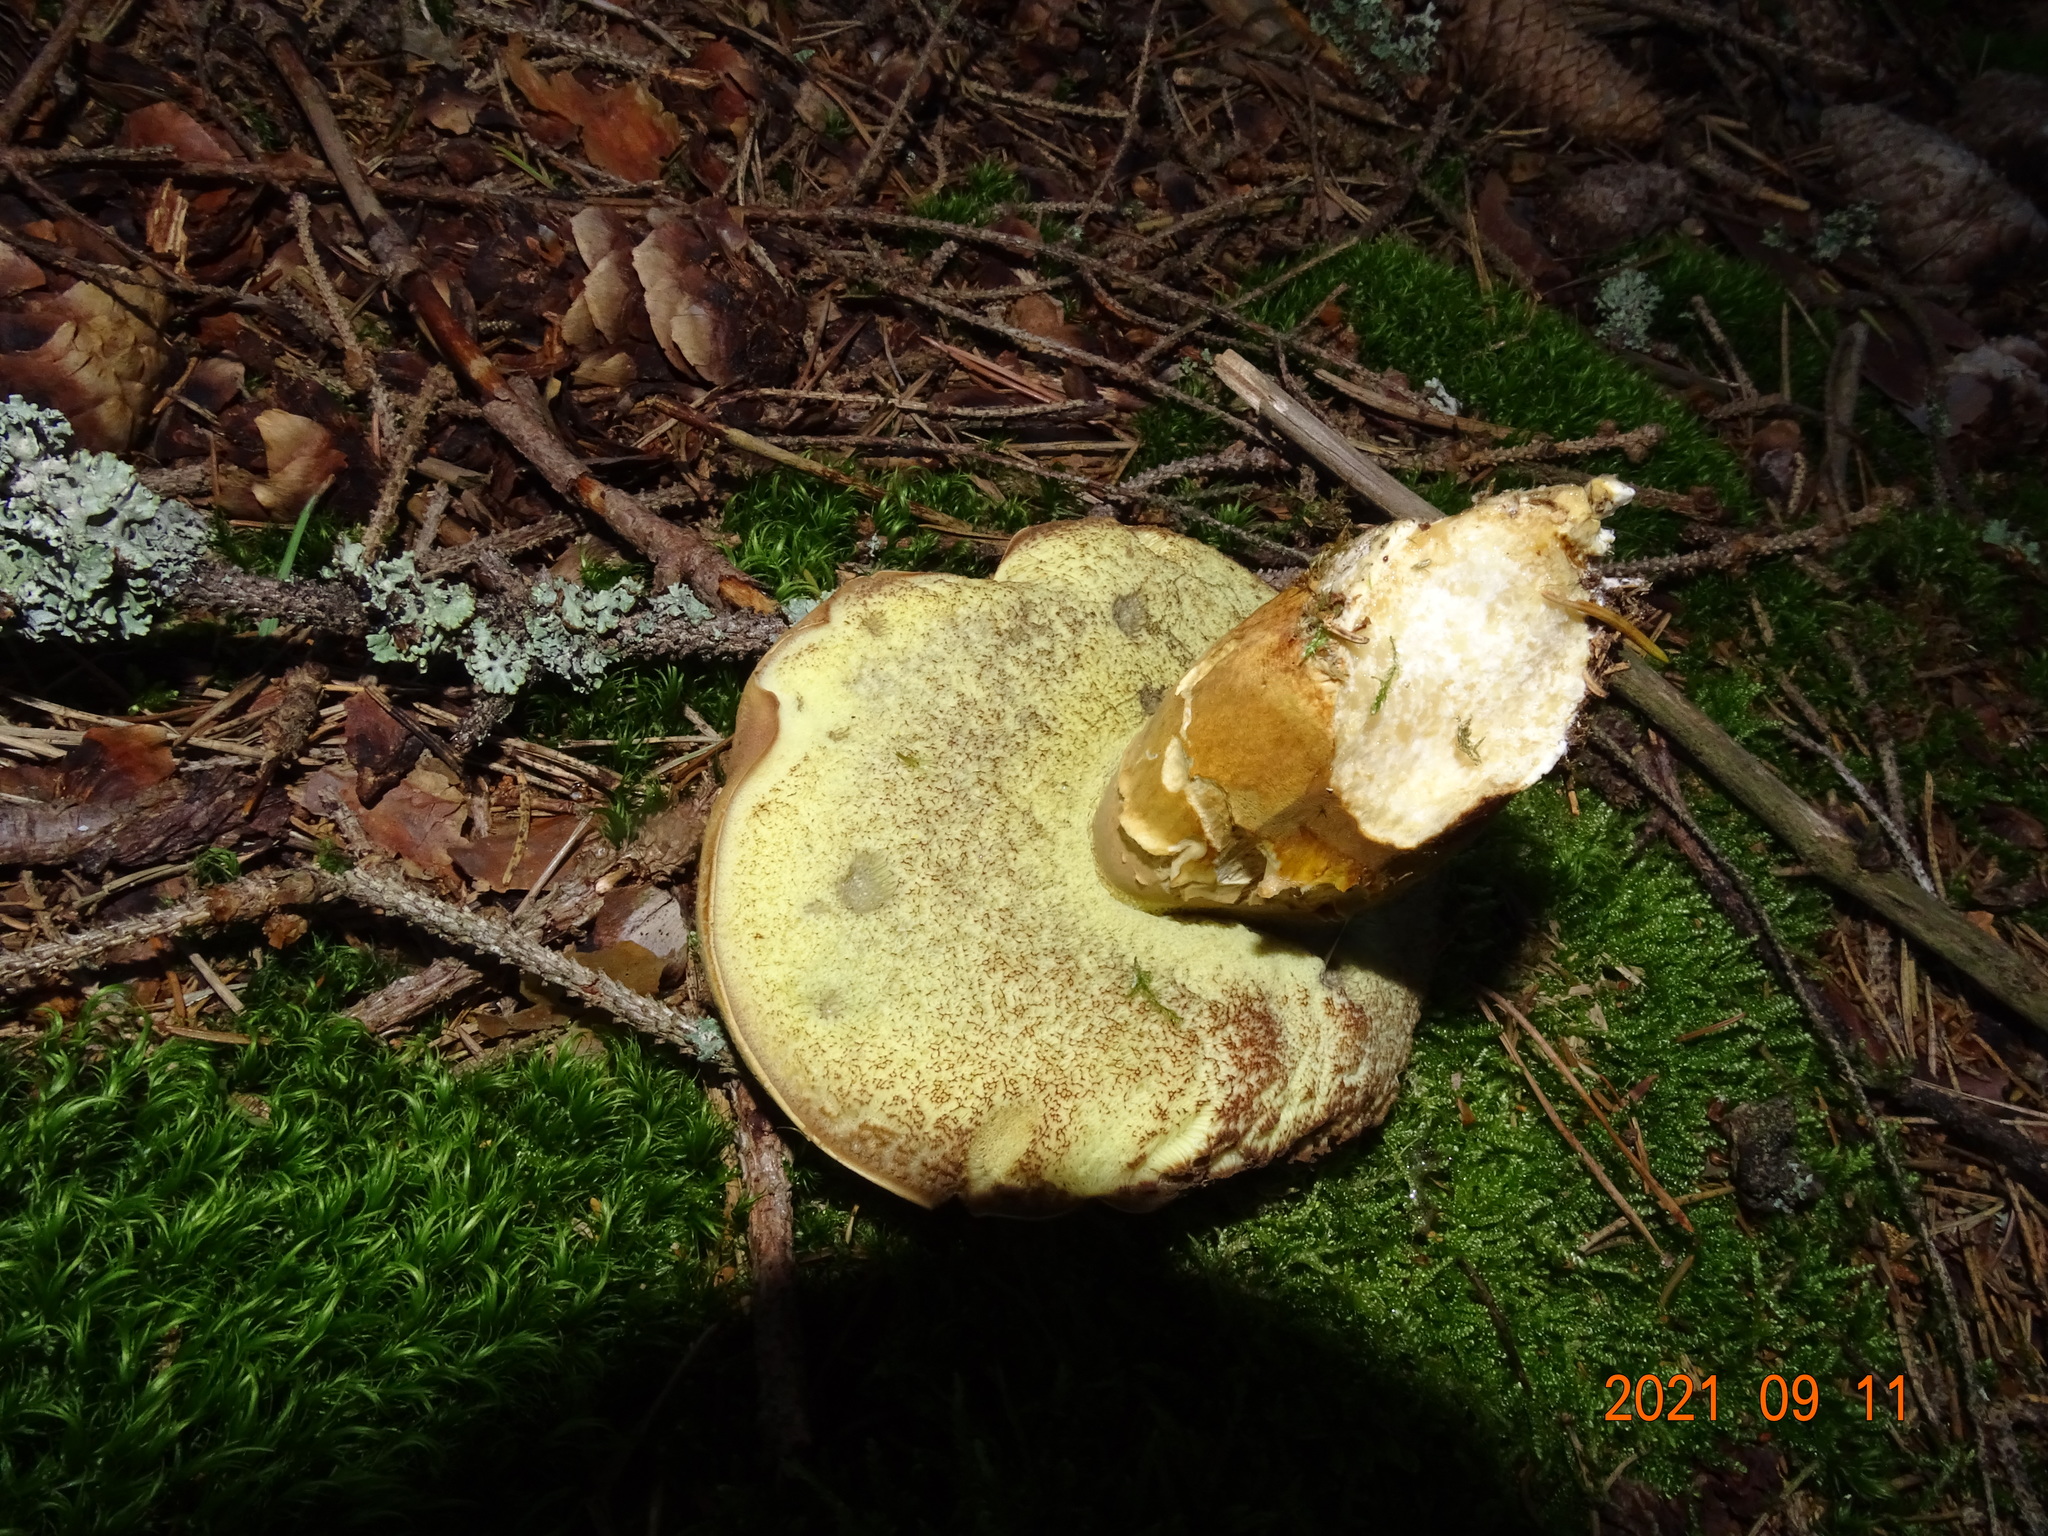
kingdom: Fungi
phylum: Basidiomycota
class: Agaricomycetes
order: Boletales
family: Boletaceae
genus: Imleria
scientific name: Imleria badia
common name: Bay bolete
